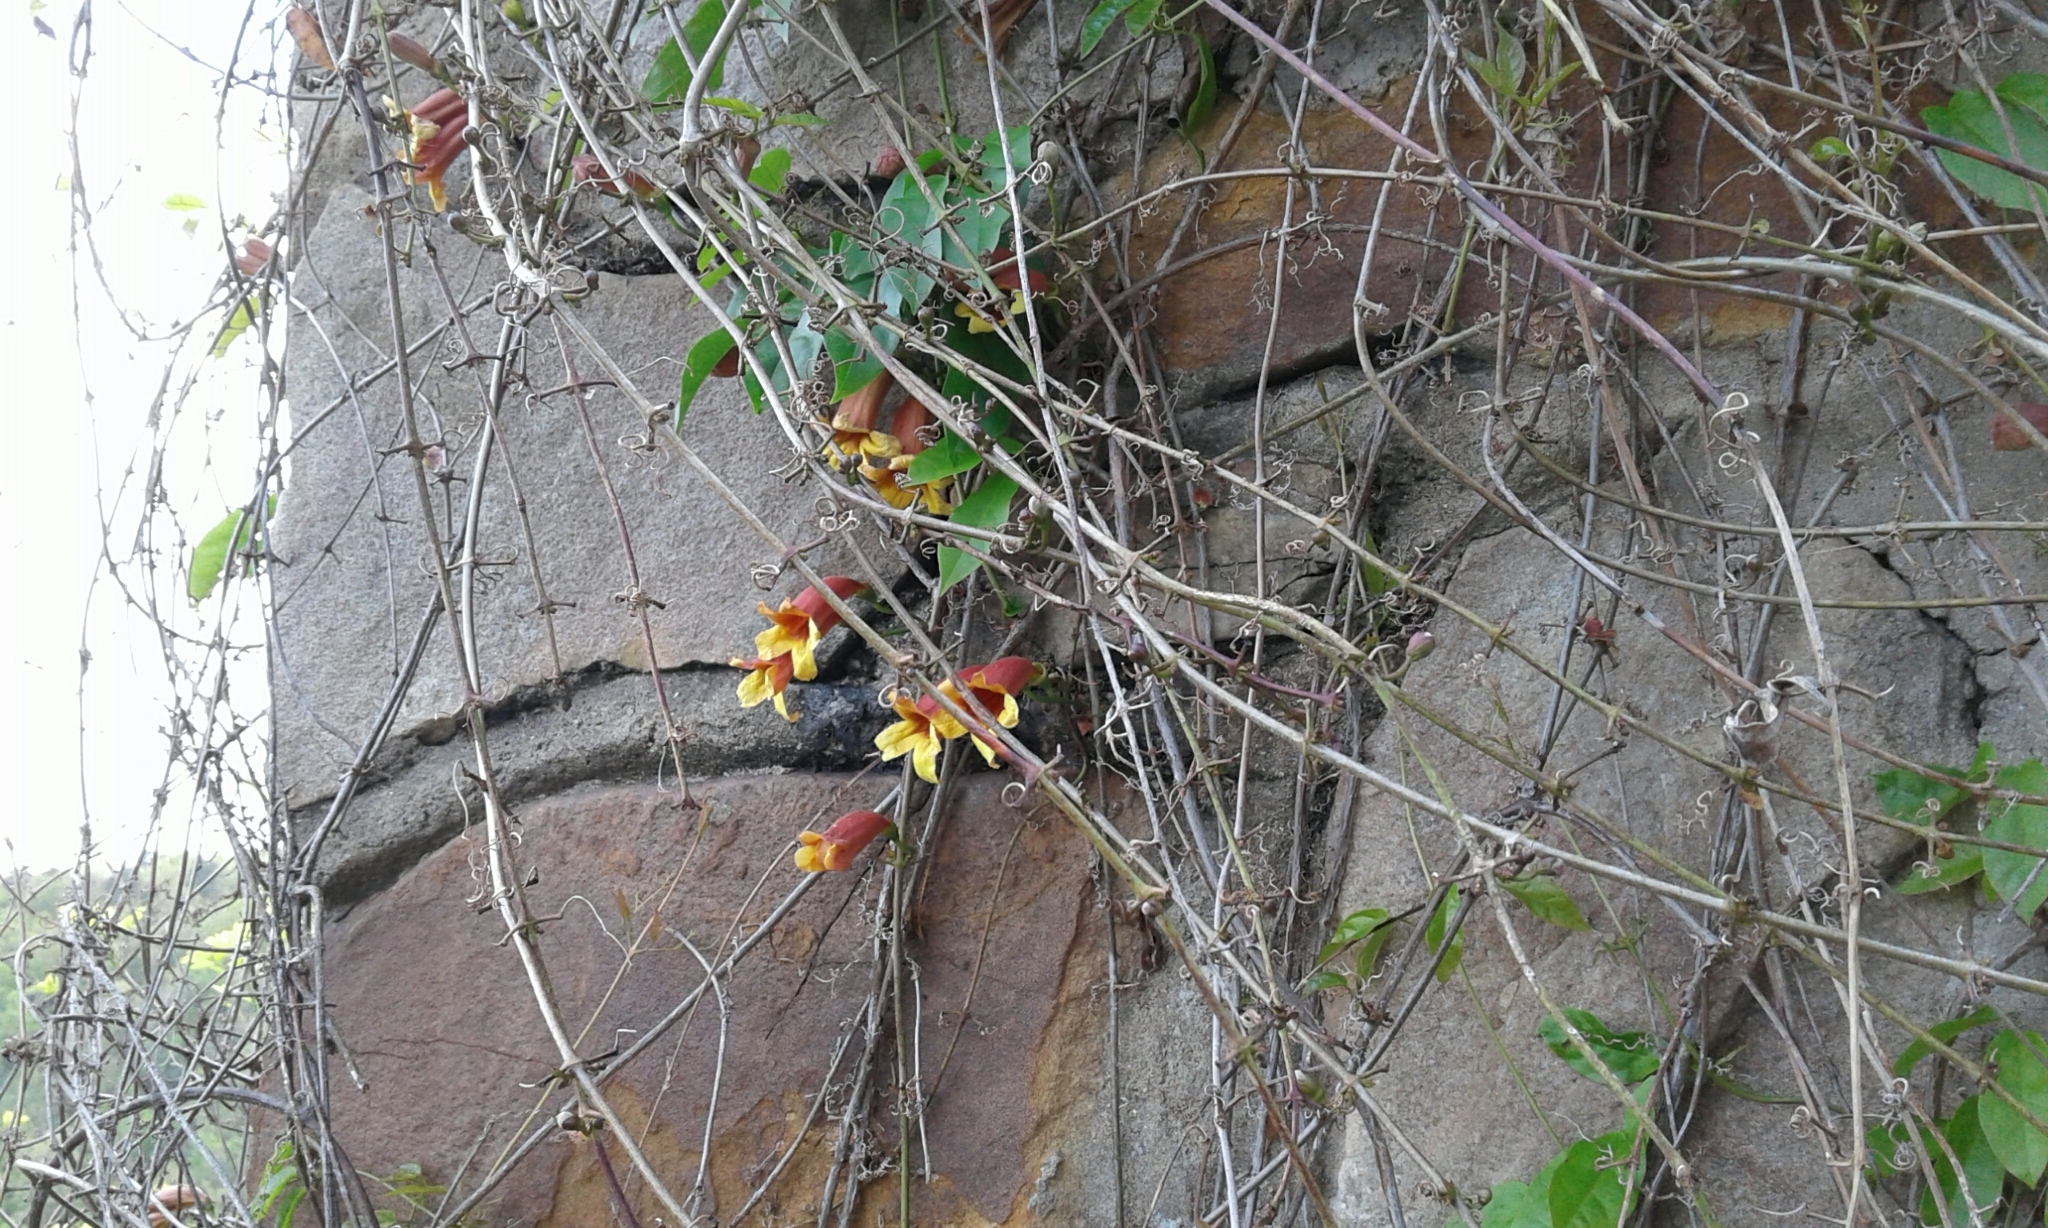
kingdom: Plantae
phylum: Tracheophyta
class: Magnoliopsida
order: Lamiales
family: Bignoniaceae
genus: Bignonia
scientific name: Bignonia capreolata
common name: Crossvine
